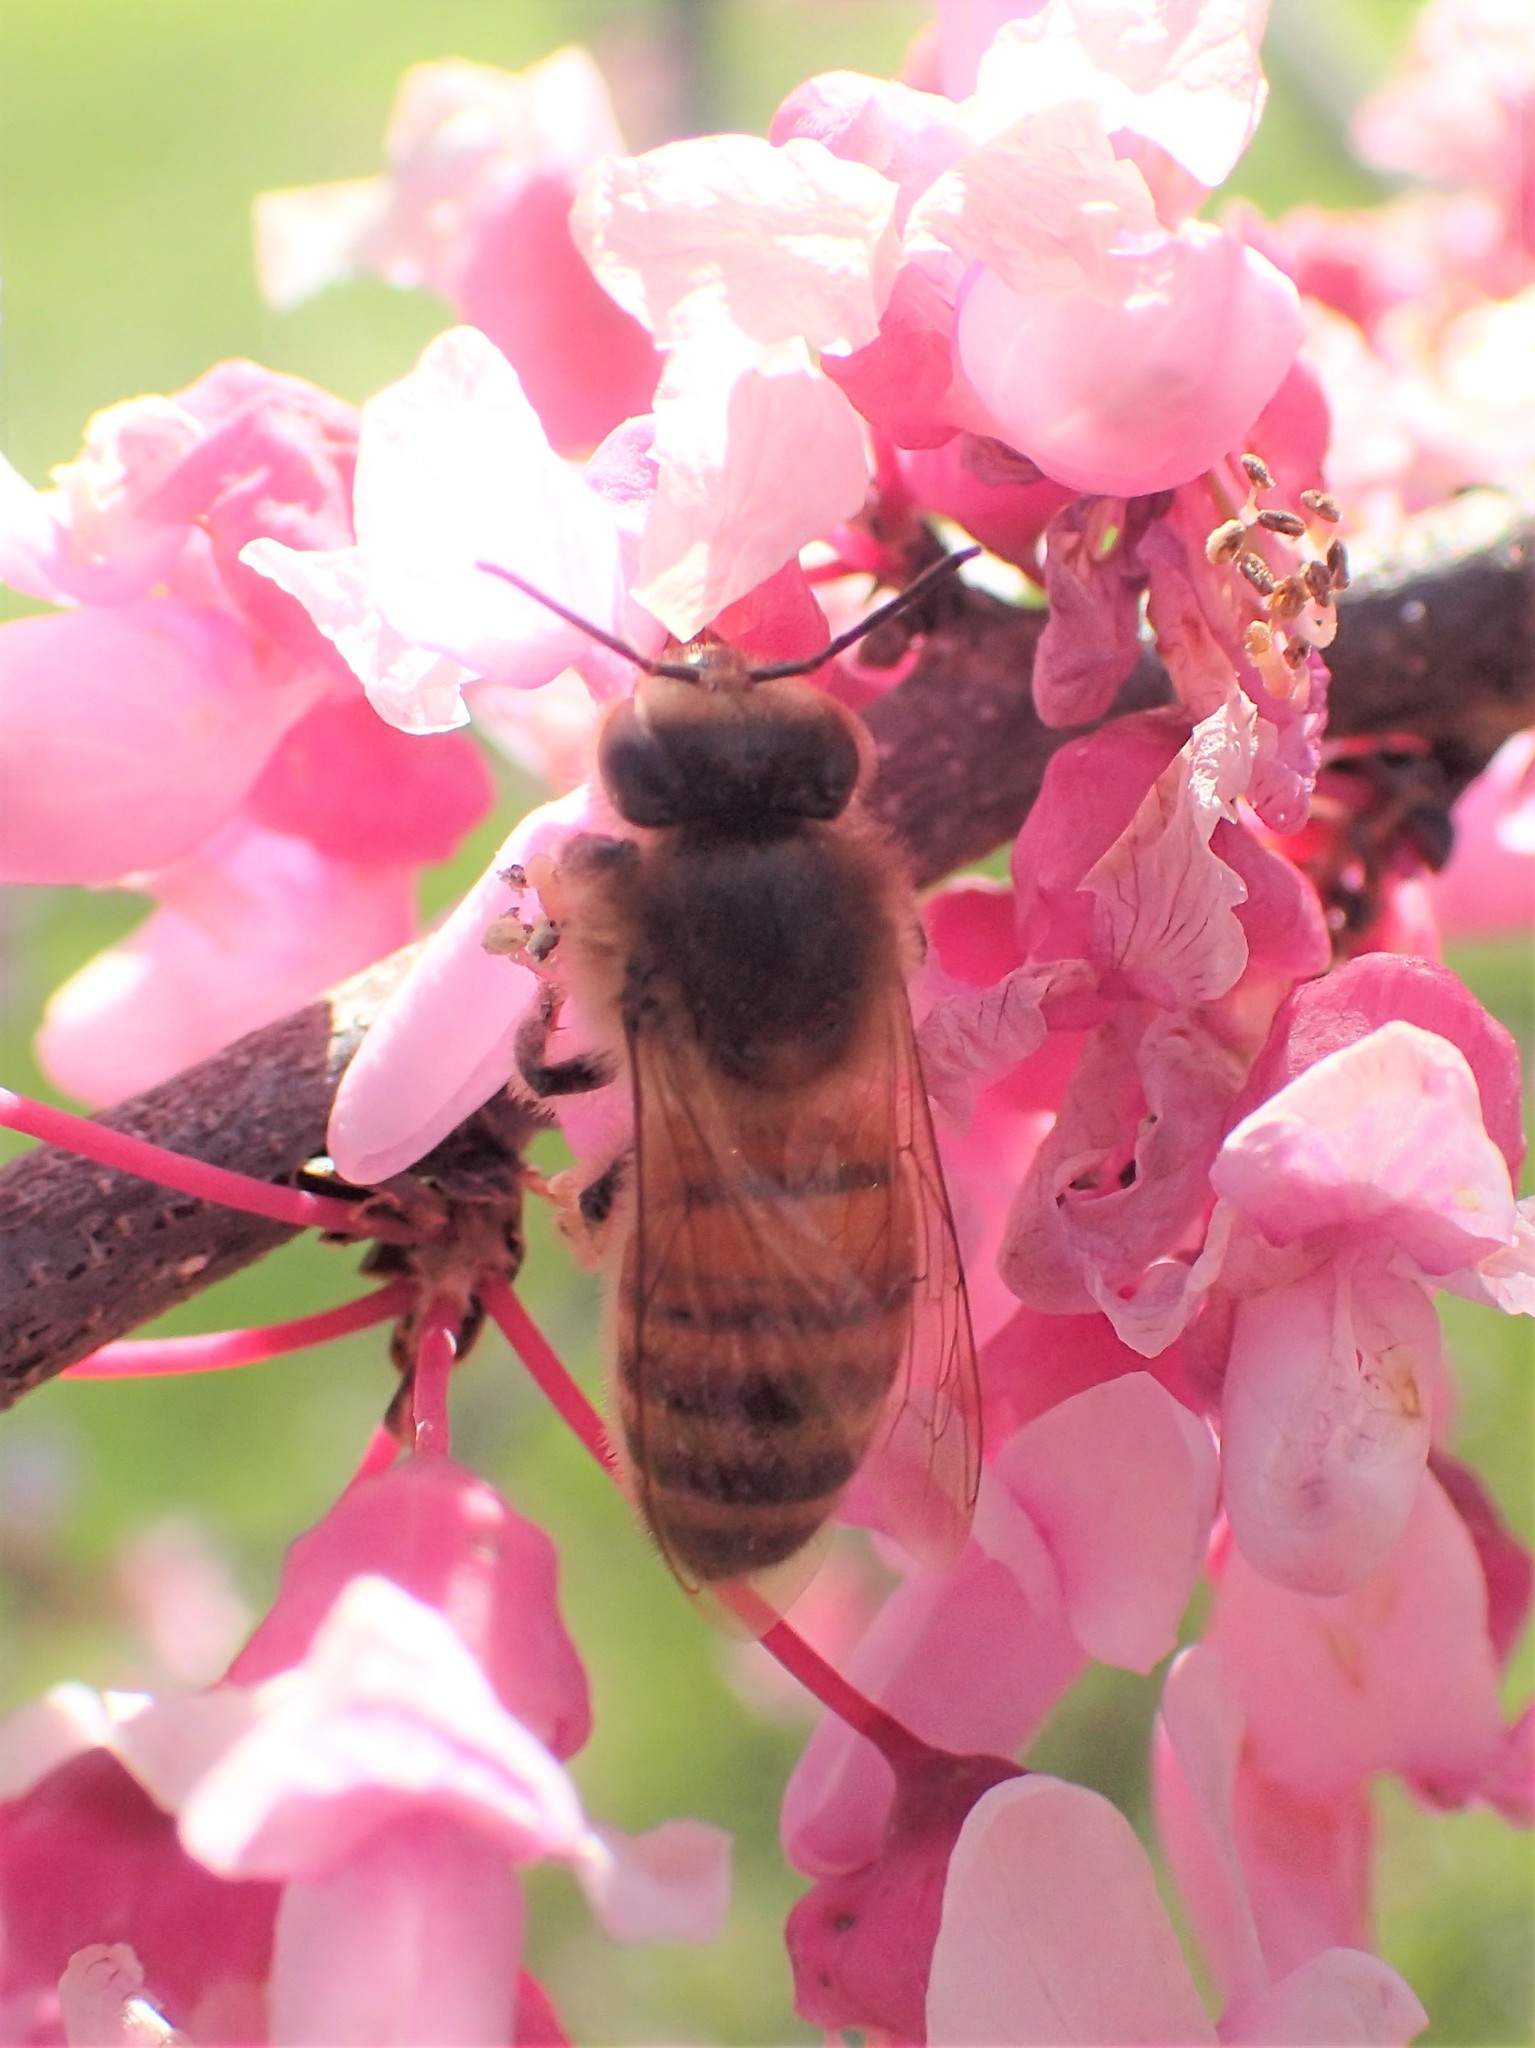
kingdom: Animalia
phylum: Arthropoda
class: Insecta
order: Hymenoptera
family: Apidae
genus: Apis
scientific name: Apis mellifera
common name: Honey bee
